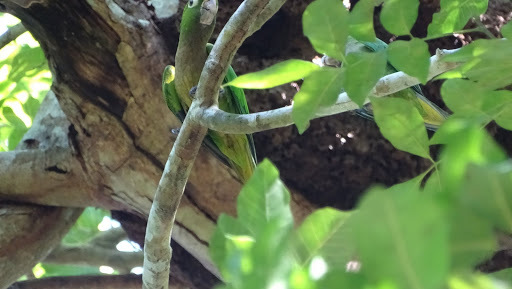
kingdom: Animalia
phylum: Chordata
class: Aves
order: Psittaciformes
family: Psittacidae
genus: Aratinga
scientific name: Aratinga nana
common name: Olive-throated parakeet
